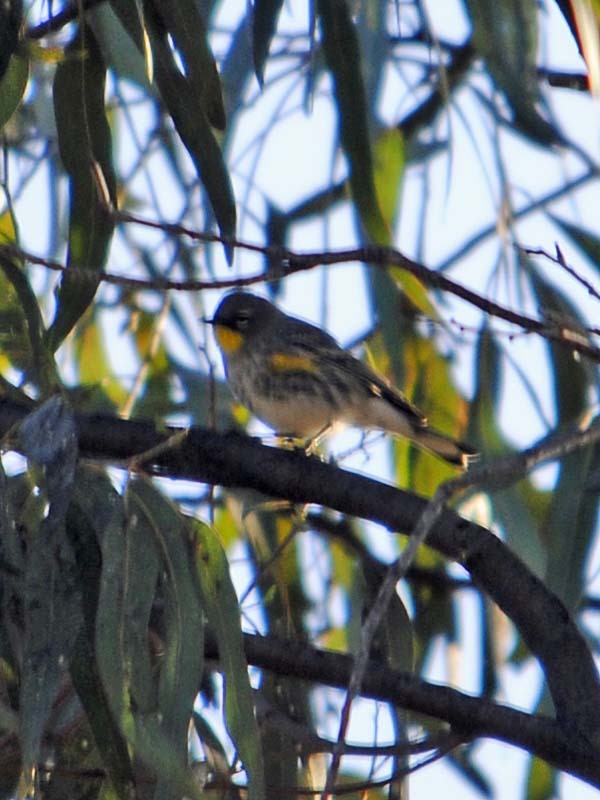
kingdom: Animalia
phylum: Chordata
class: Aves
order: Passeriformes
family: Parulidae
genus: Setophaga
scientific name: Setophaga coronata
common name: Myrtle warbler
